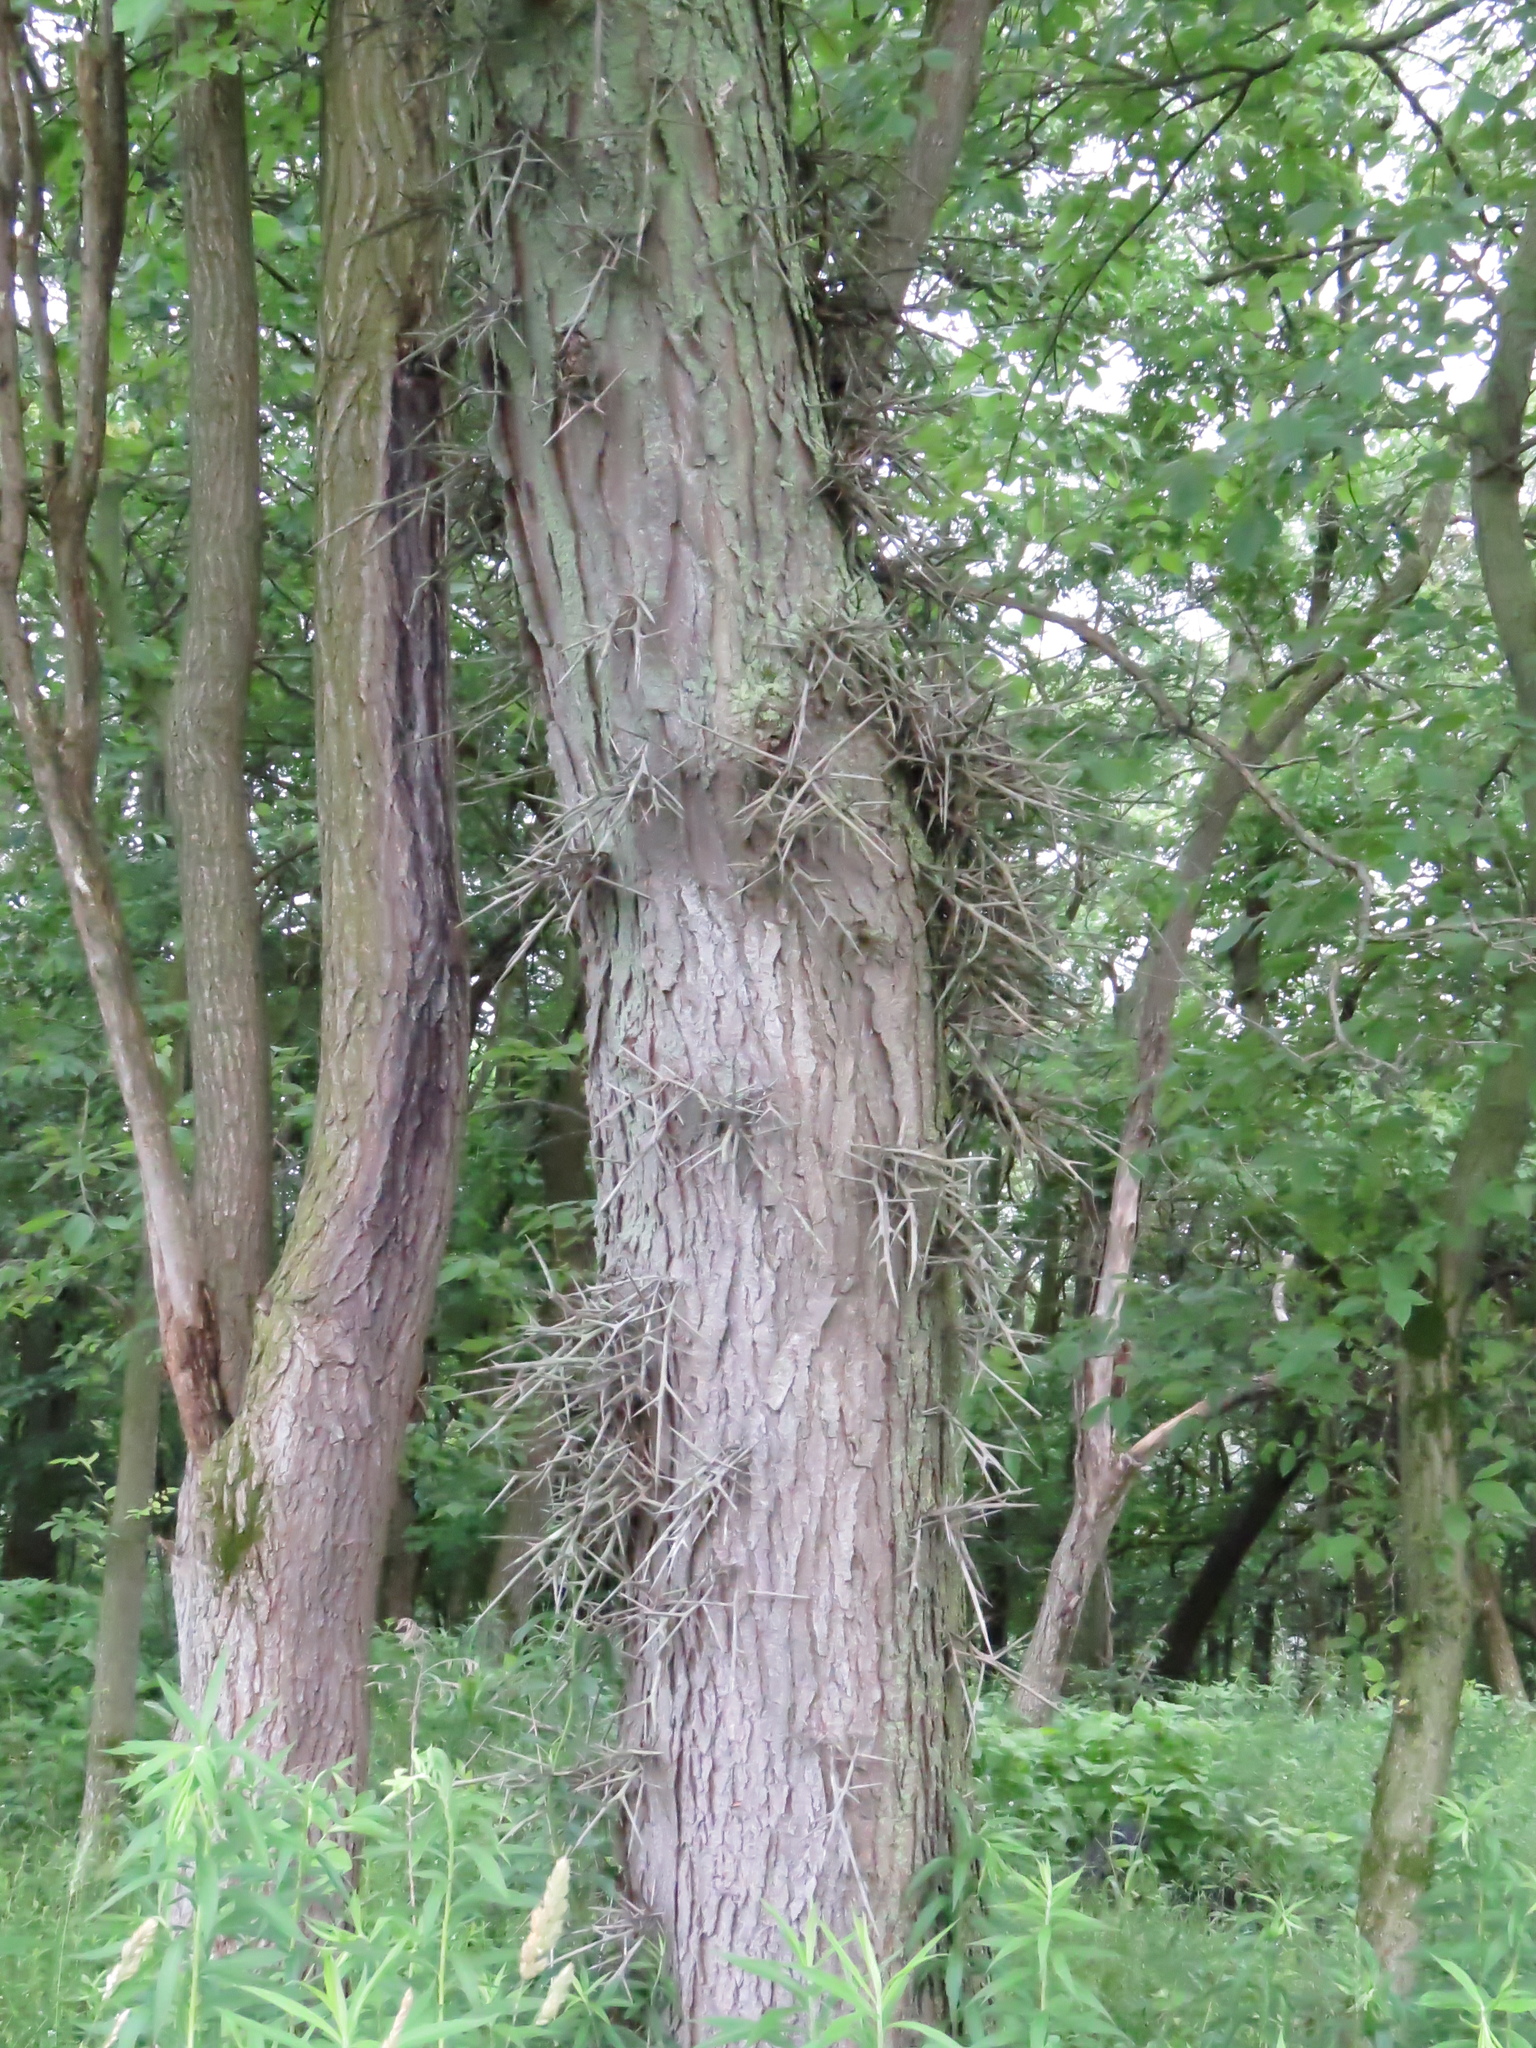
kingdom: Plantae
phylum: Tracheophyta
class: Magnoliopsida
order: Fabales
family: Fabaceae
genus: Gleditsia
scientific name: Gleditsia triacanthos
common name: Common honeylocust
